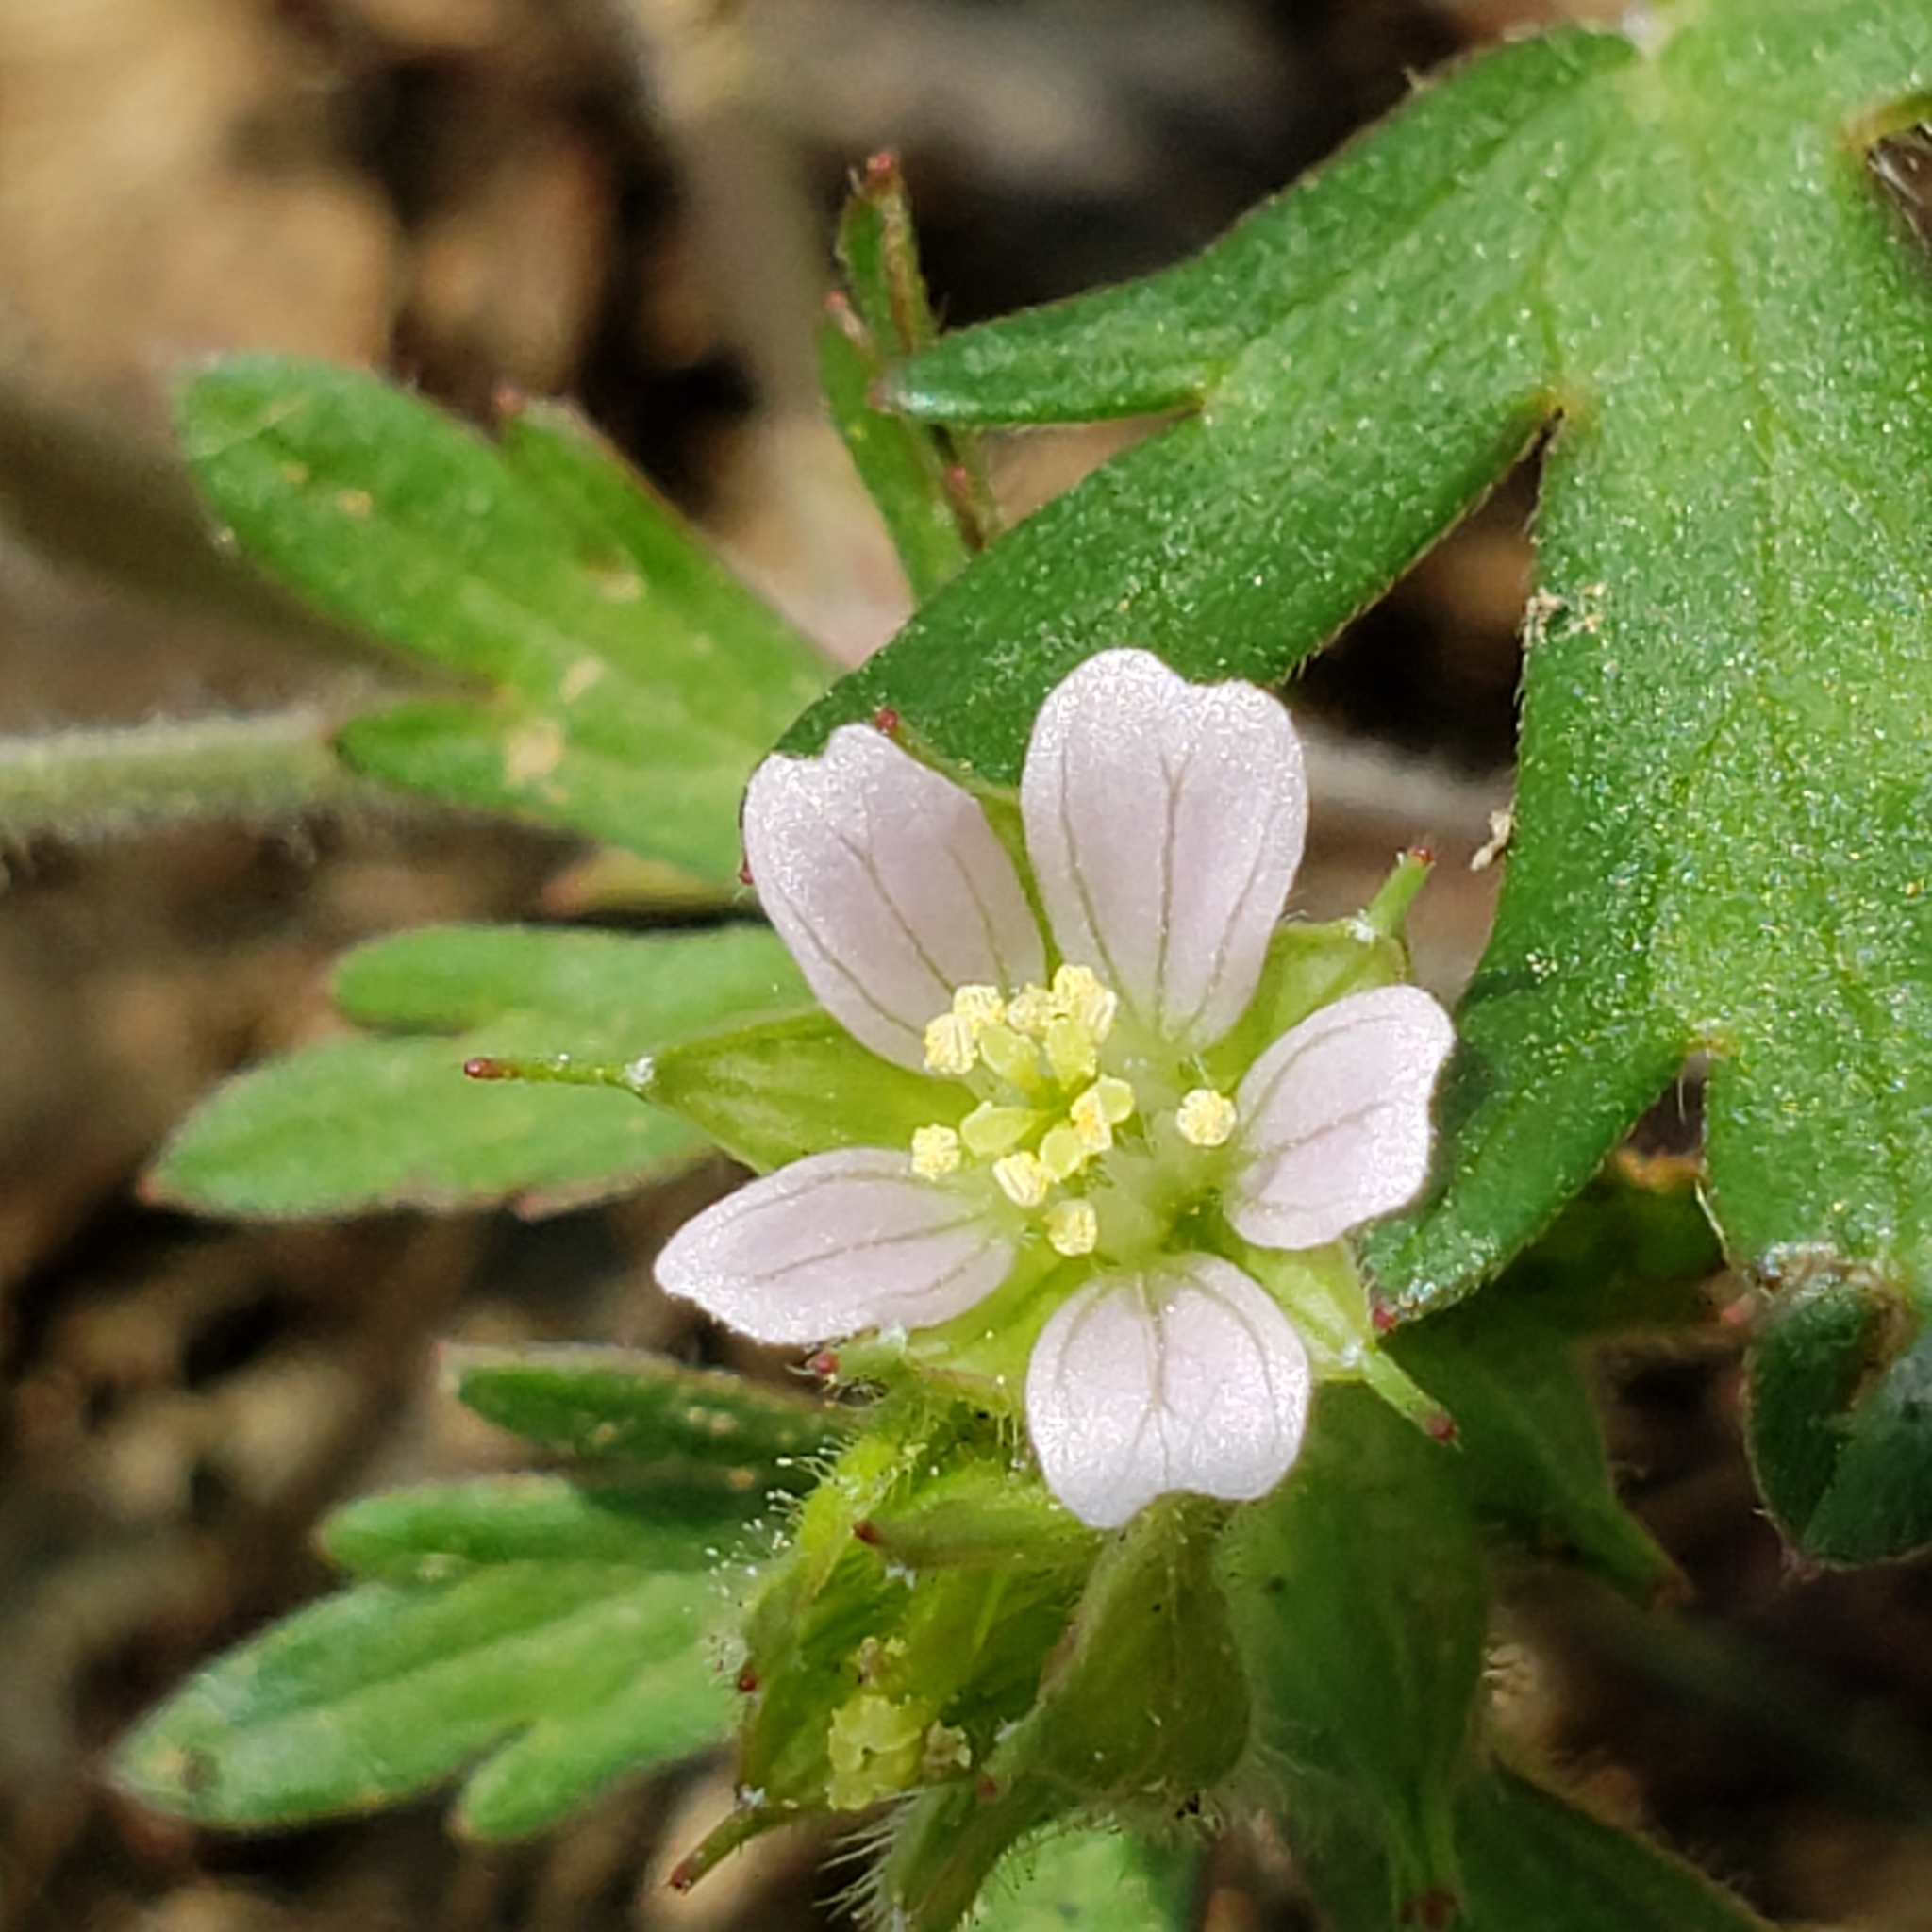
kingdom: Plantae
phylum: Tracheophyta
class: Magnoliopsida
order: Geraniales
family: Geraniaceae
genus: Geranium
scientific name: Geranium carolinianum
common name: Carolina crane's-bill
